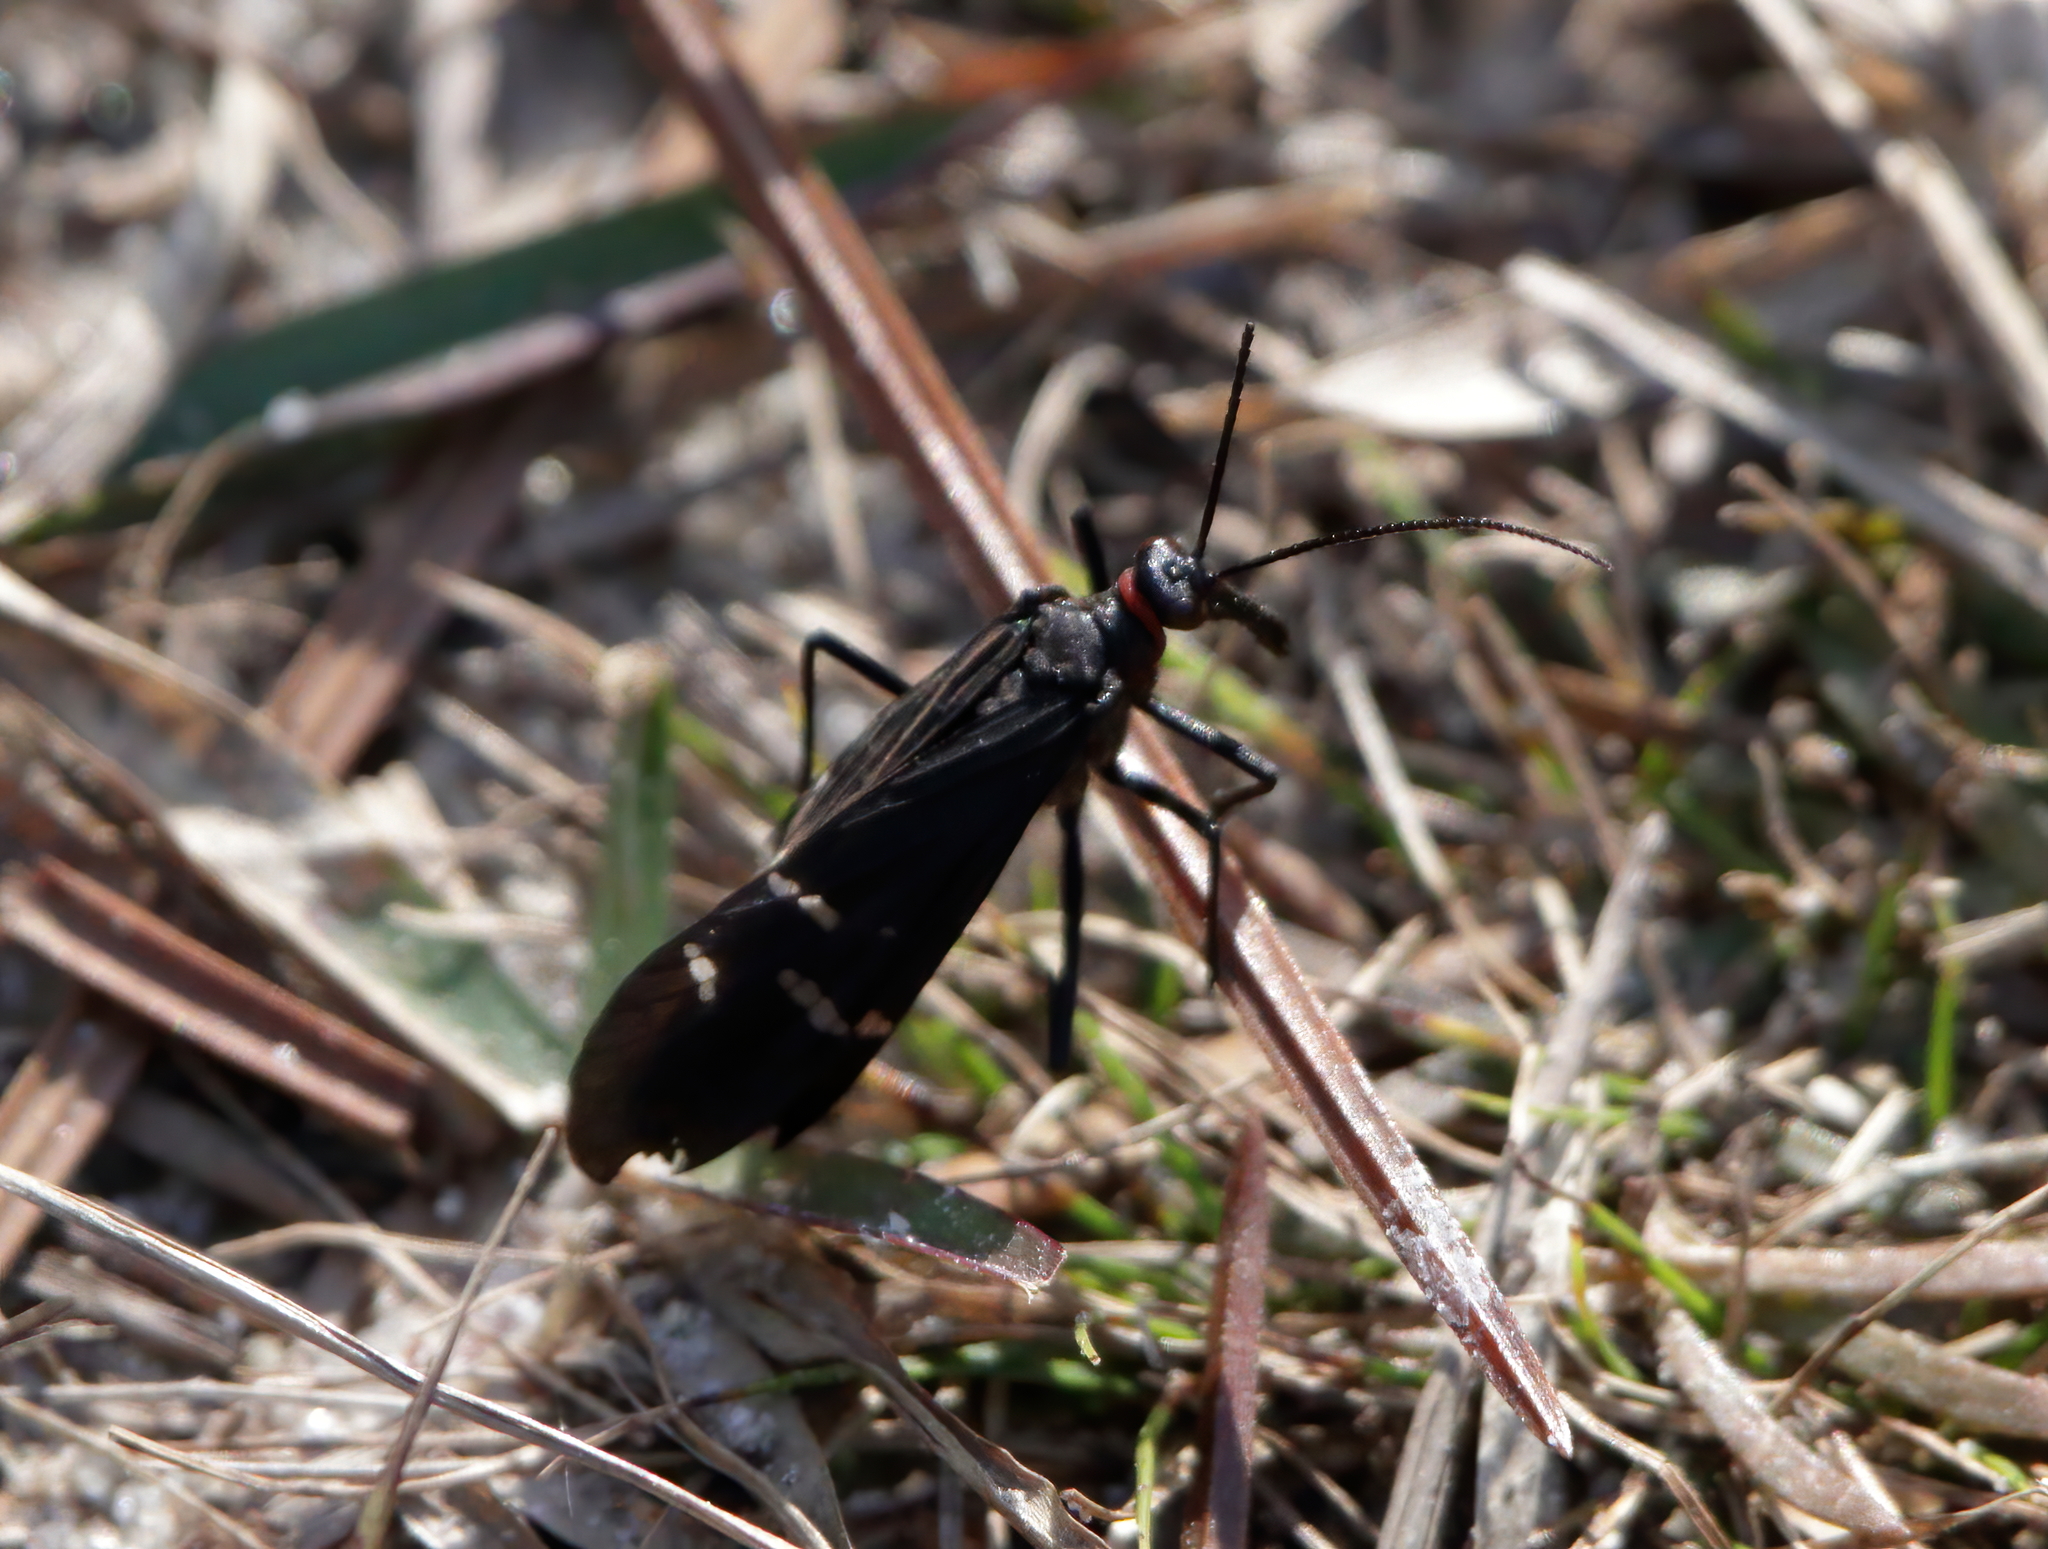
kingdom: Animalia
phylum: Arthropoda
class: Insecta
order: Mecoptera
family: Panorpidae
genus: Panorpa
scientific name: Panorpa lugubris
